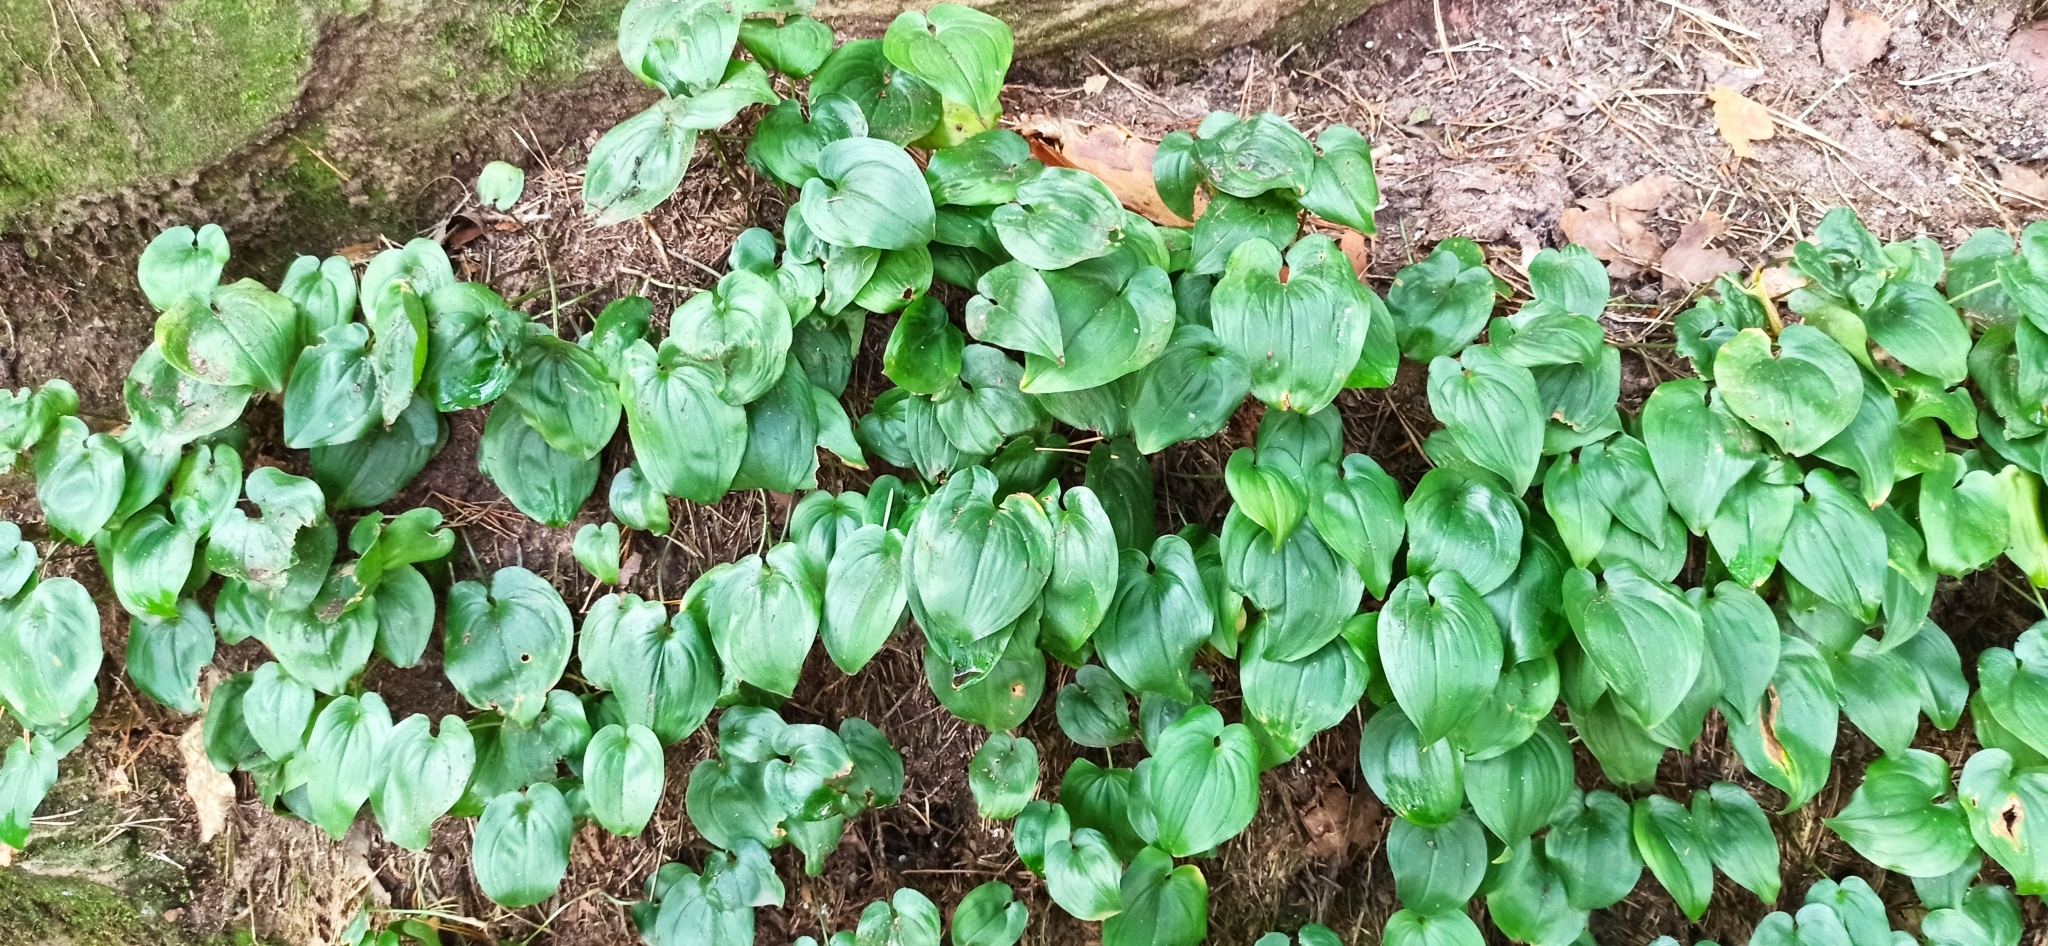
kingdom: Plantae
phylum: Tracheophyta
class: Liliopsida
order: Asparagales
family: Asparagaceae
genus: Maianthemum
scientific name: Maianthemum bifolium
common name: May lily
